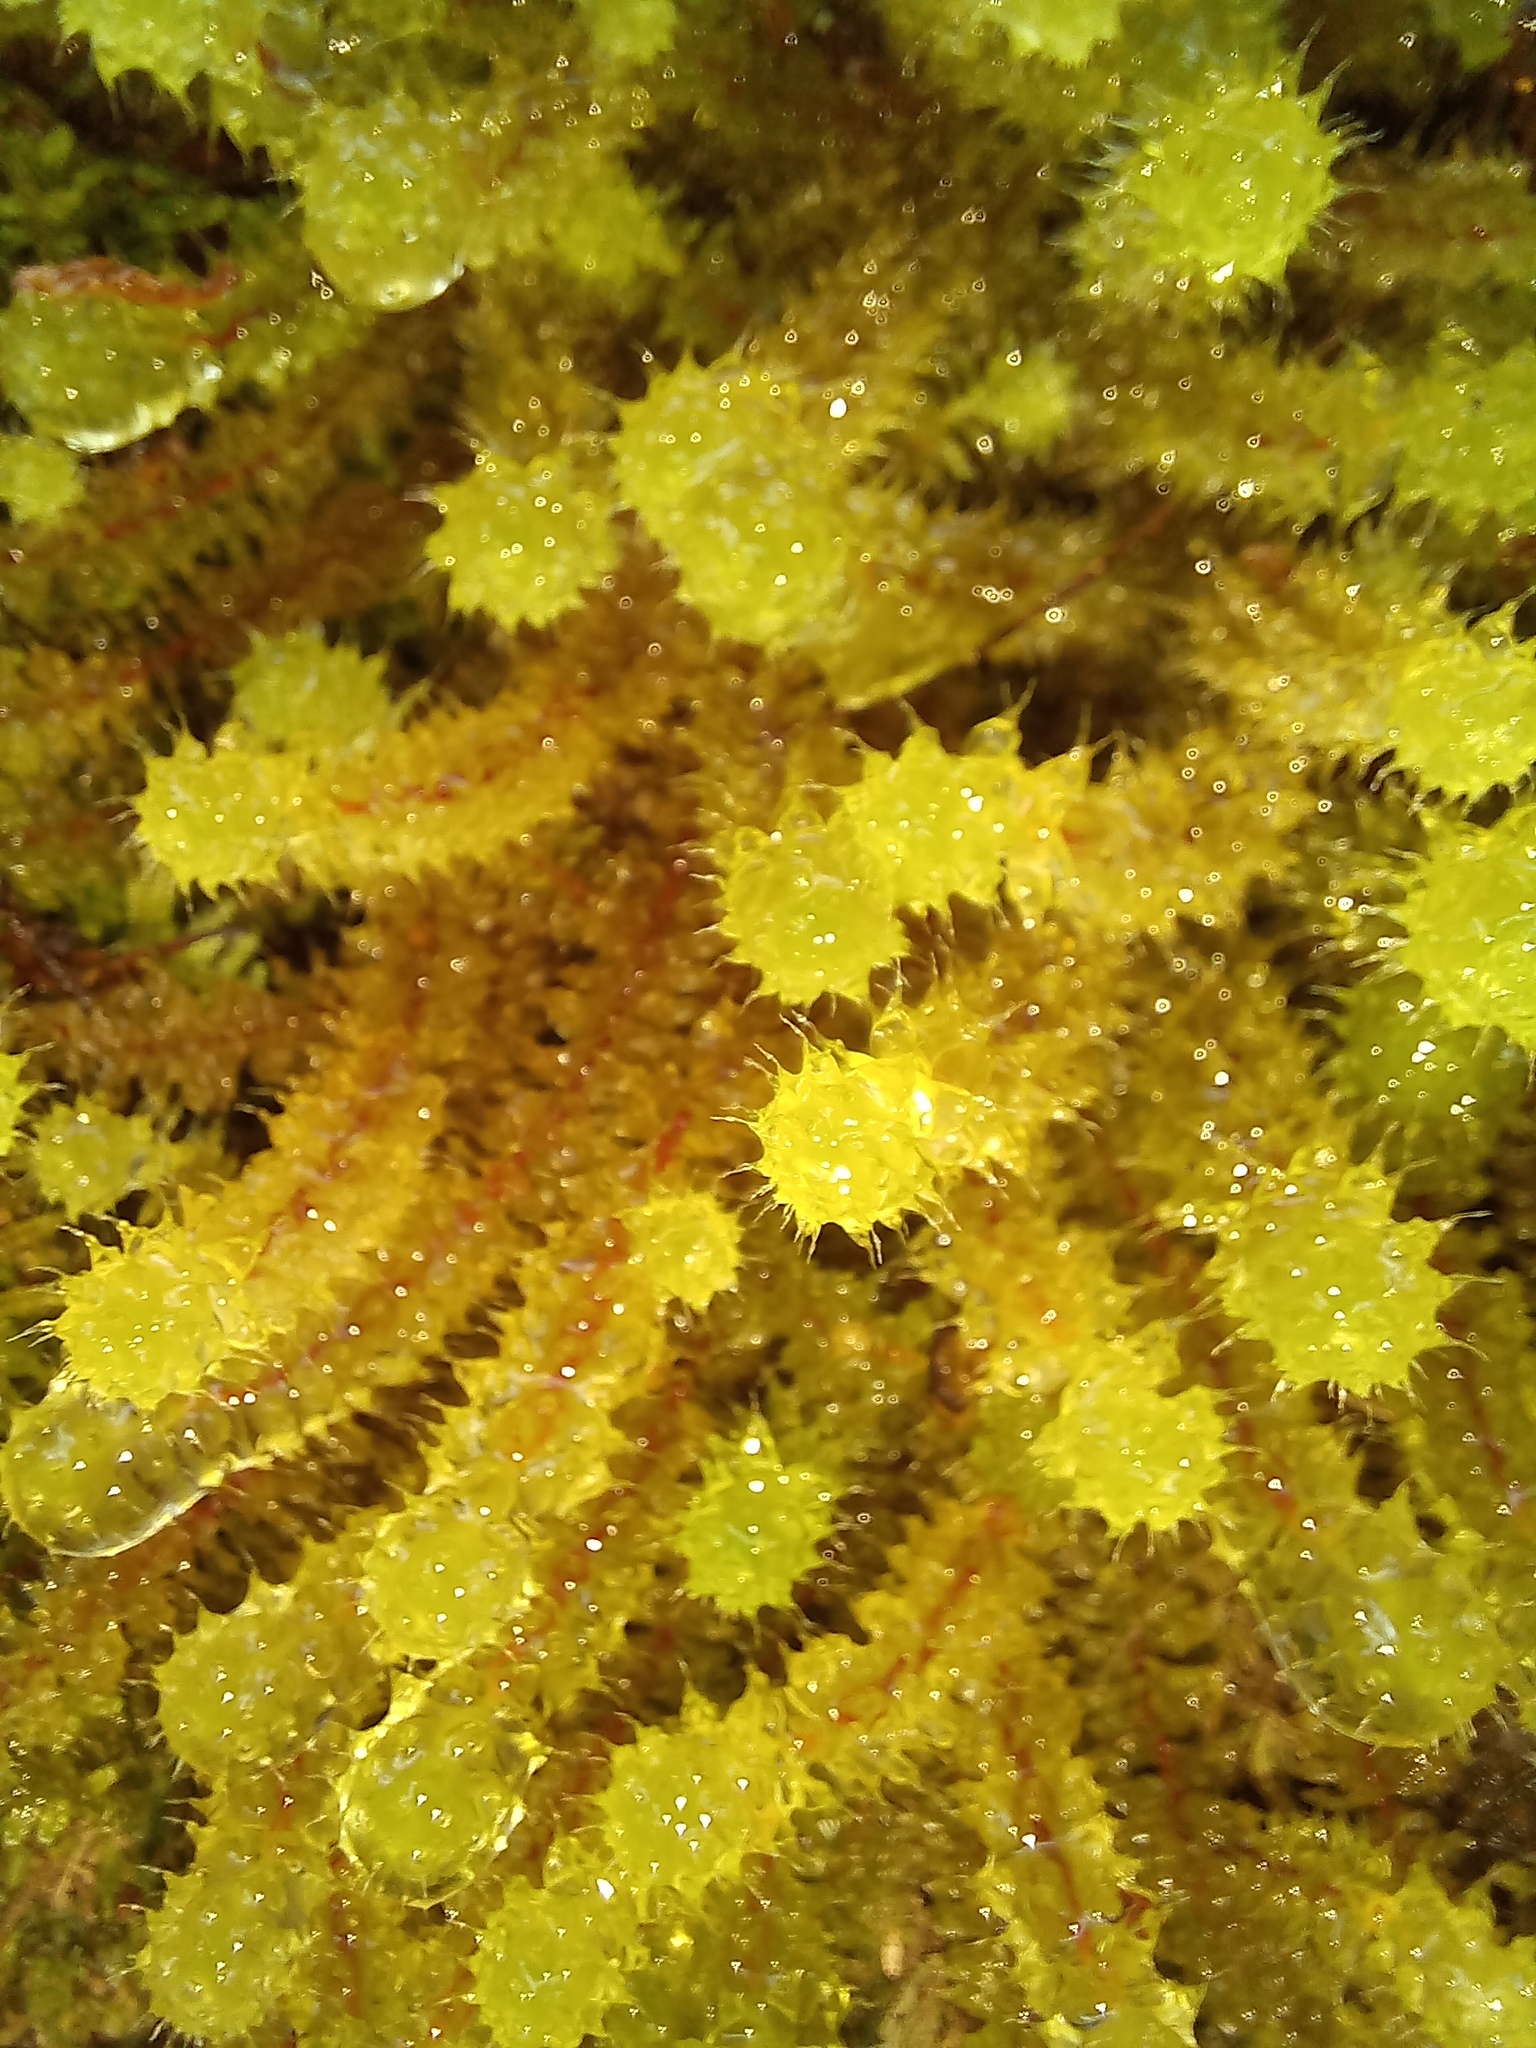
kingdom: Plantae
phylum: Bryophyta
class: Bryopsida
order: Ptychomniales
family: Ptychomniaceae
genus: Ptychomnion
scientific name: Ptychomnion aciculare
